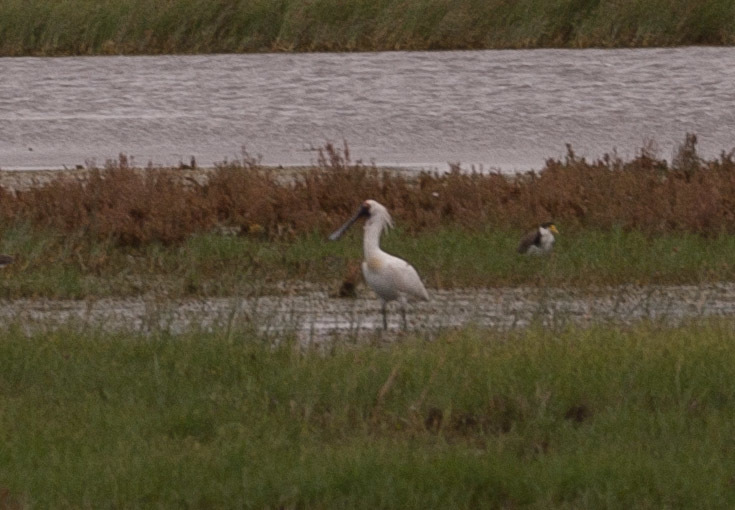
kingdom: Animalia
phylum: Chordata
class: Aves
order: Pelecaniformes
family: Threskiornithidae
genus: Platalea
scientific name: Platalea regia
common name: Royal spoonbill
